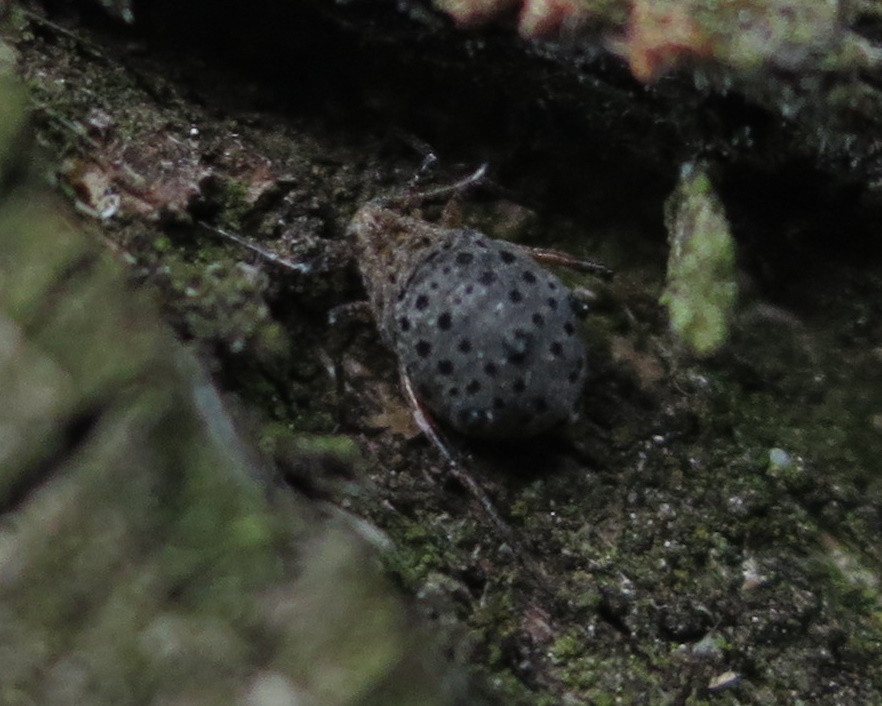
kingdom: Animalia
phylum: Arthropoda
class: Insecta
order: Hemiptera
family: Aphididae
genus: Tuberolachnus
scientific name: Tuberolachnus salignus
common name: Giant willow aphid
